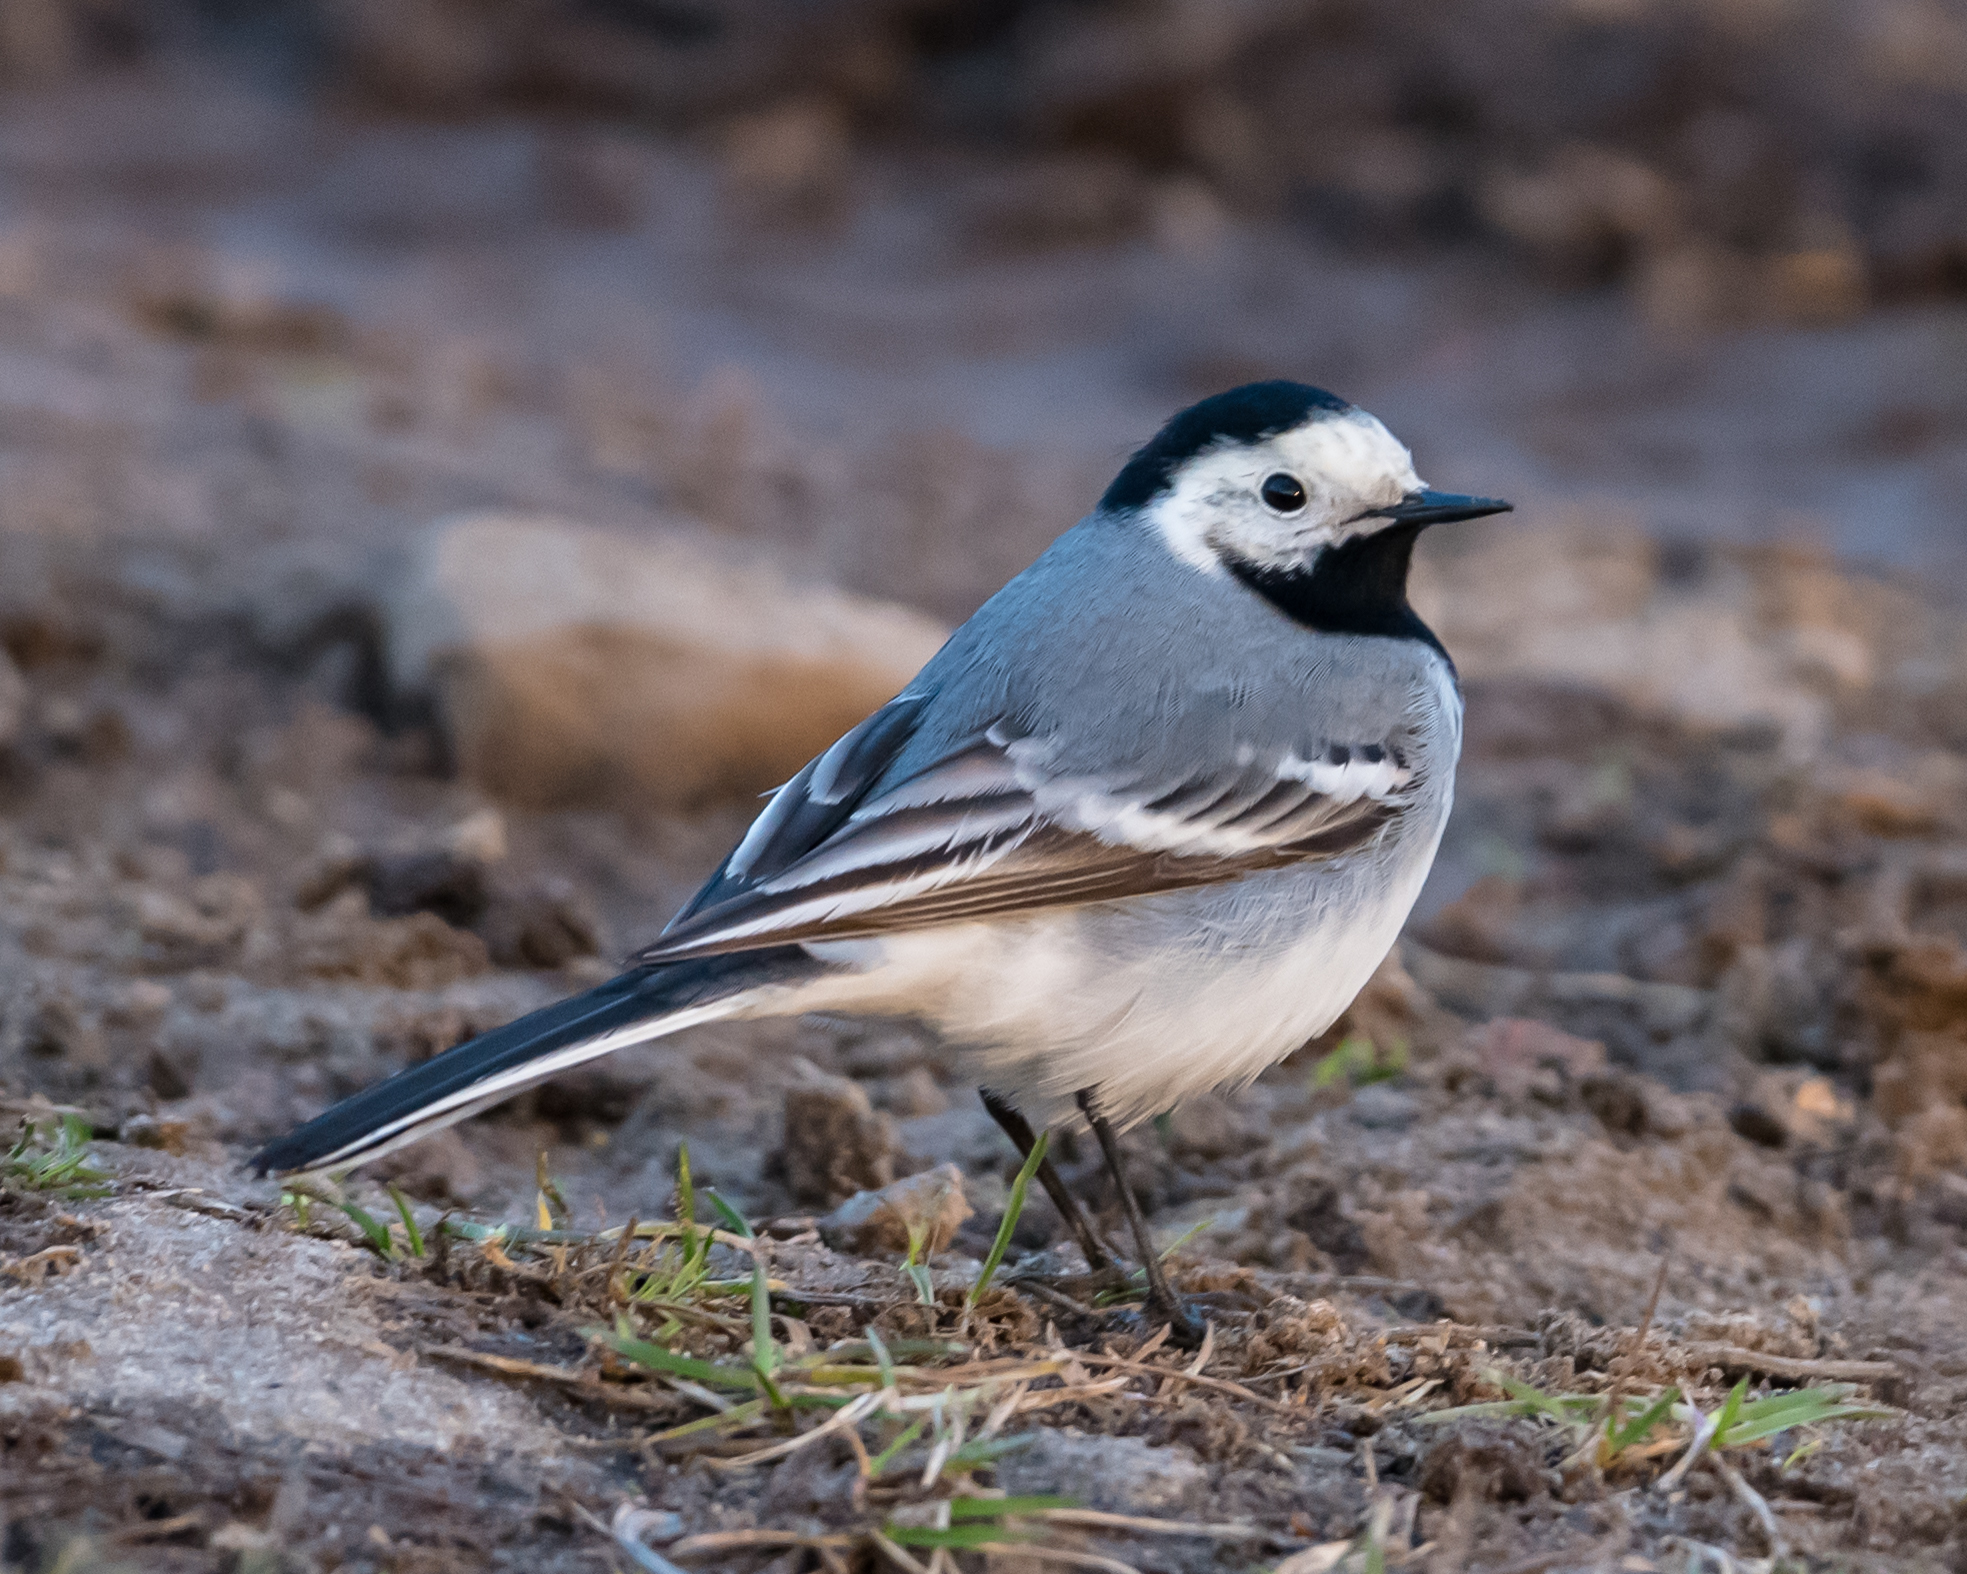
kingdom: Animalia
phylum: Chordata
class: Aves
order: Passeriformes
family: Motacillidae
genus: Motacilla
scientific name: Motacilla alba
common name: White wagtail
